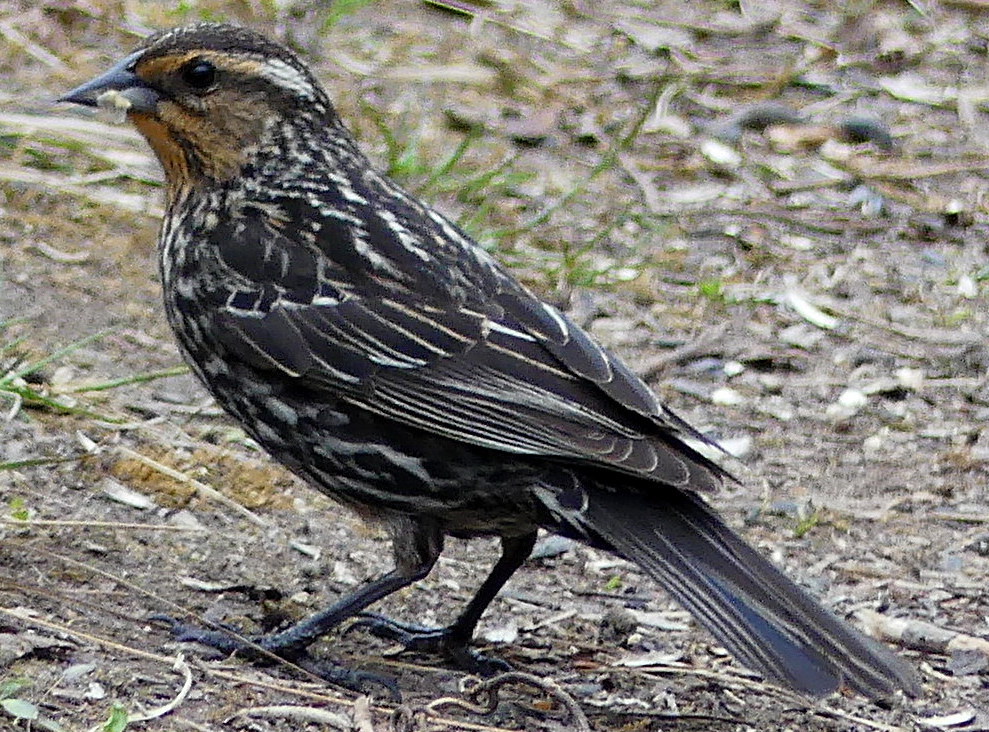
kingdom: Animalia
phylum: Chordata
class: Aves
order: Passeriformes
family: Icteridae
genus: Agelaius
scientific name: Agelaius phoeniceus
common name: Red-winged blackbird
